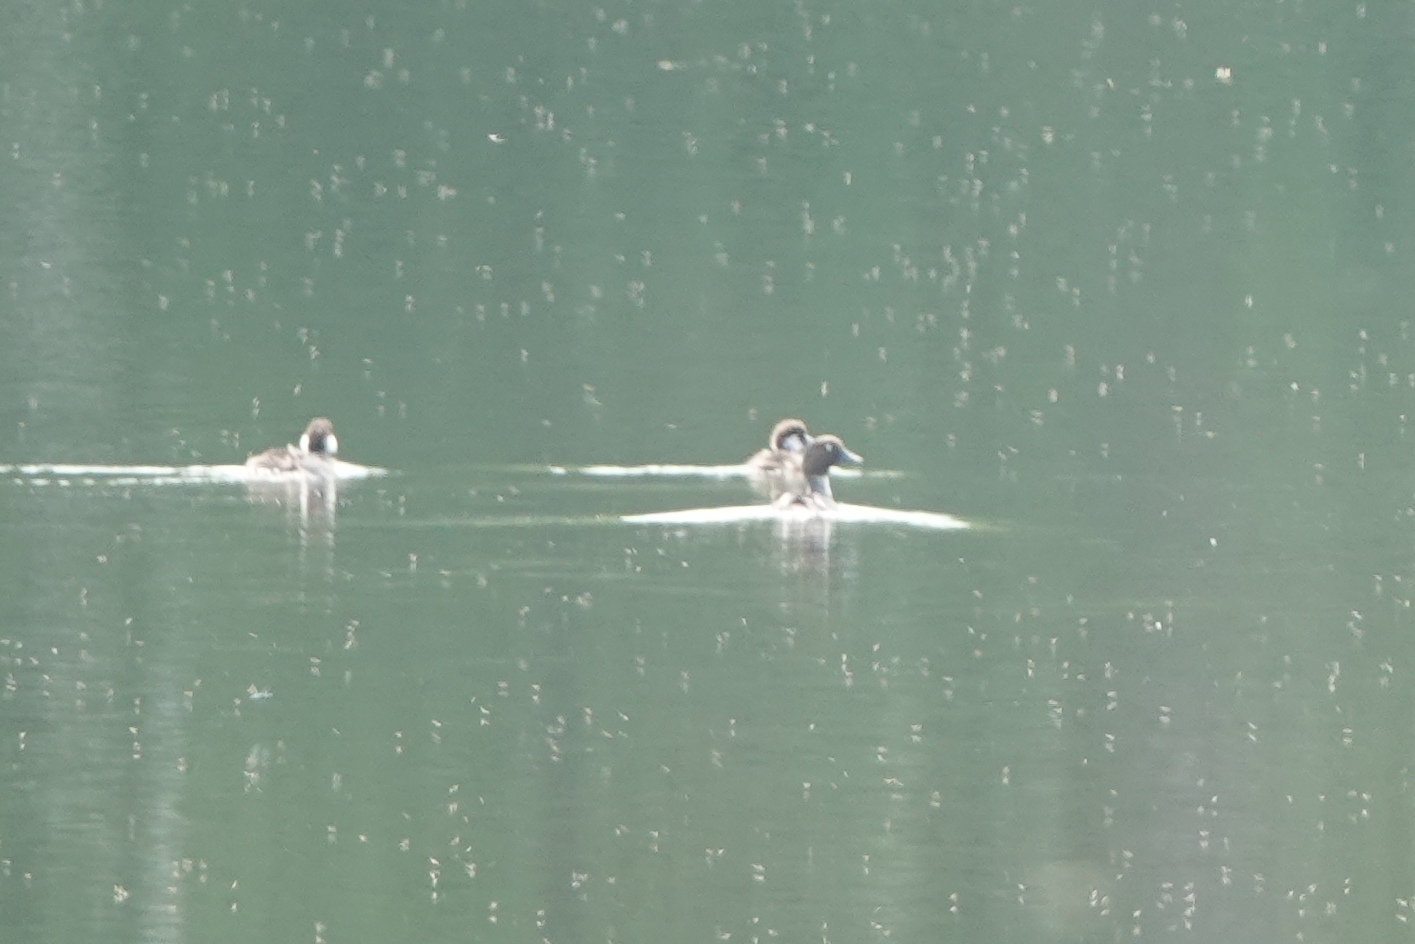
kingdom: Animalia
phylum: Chordata
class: Aves
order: Anseriformes
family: Anatidae
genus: Bucephala
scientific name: Bucephala clangula
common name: Common goldeneye
